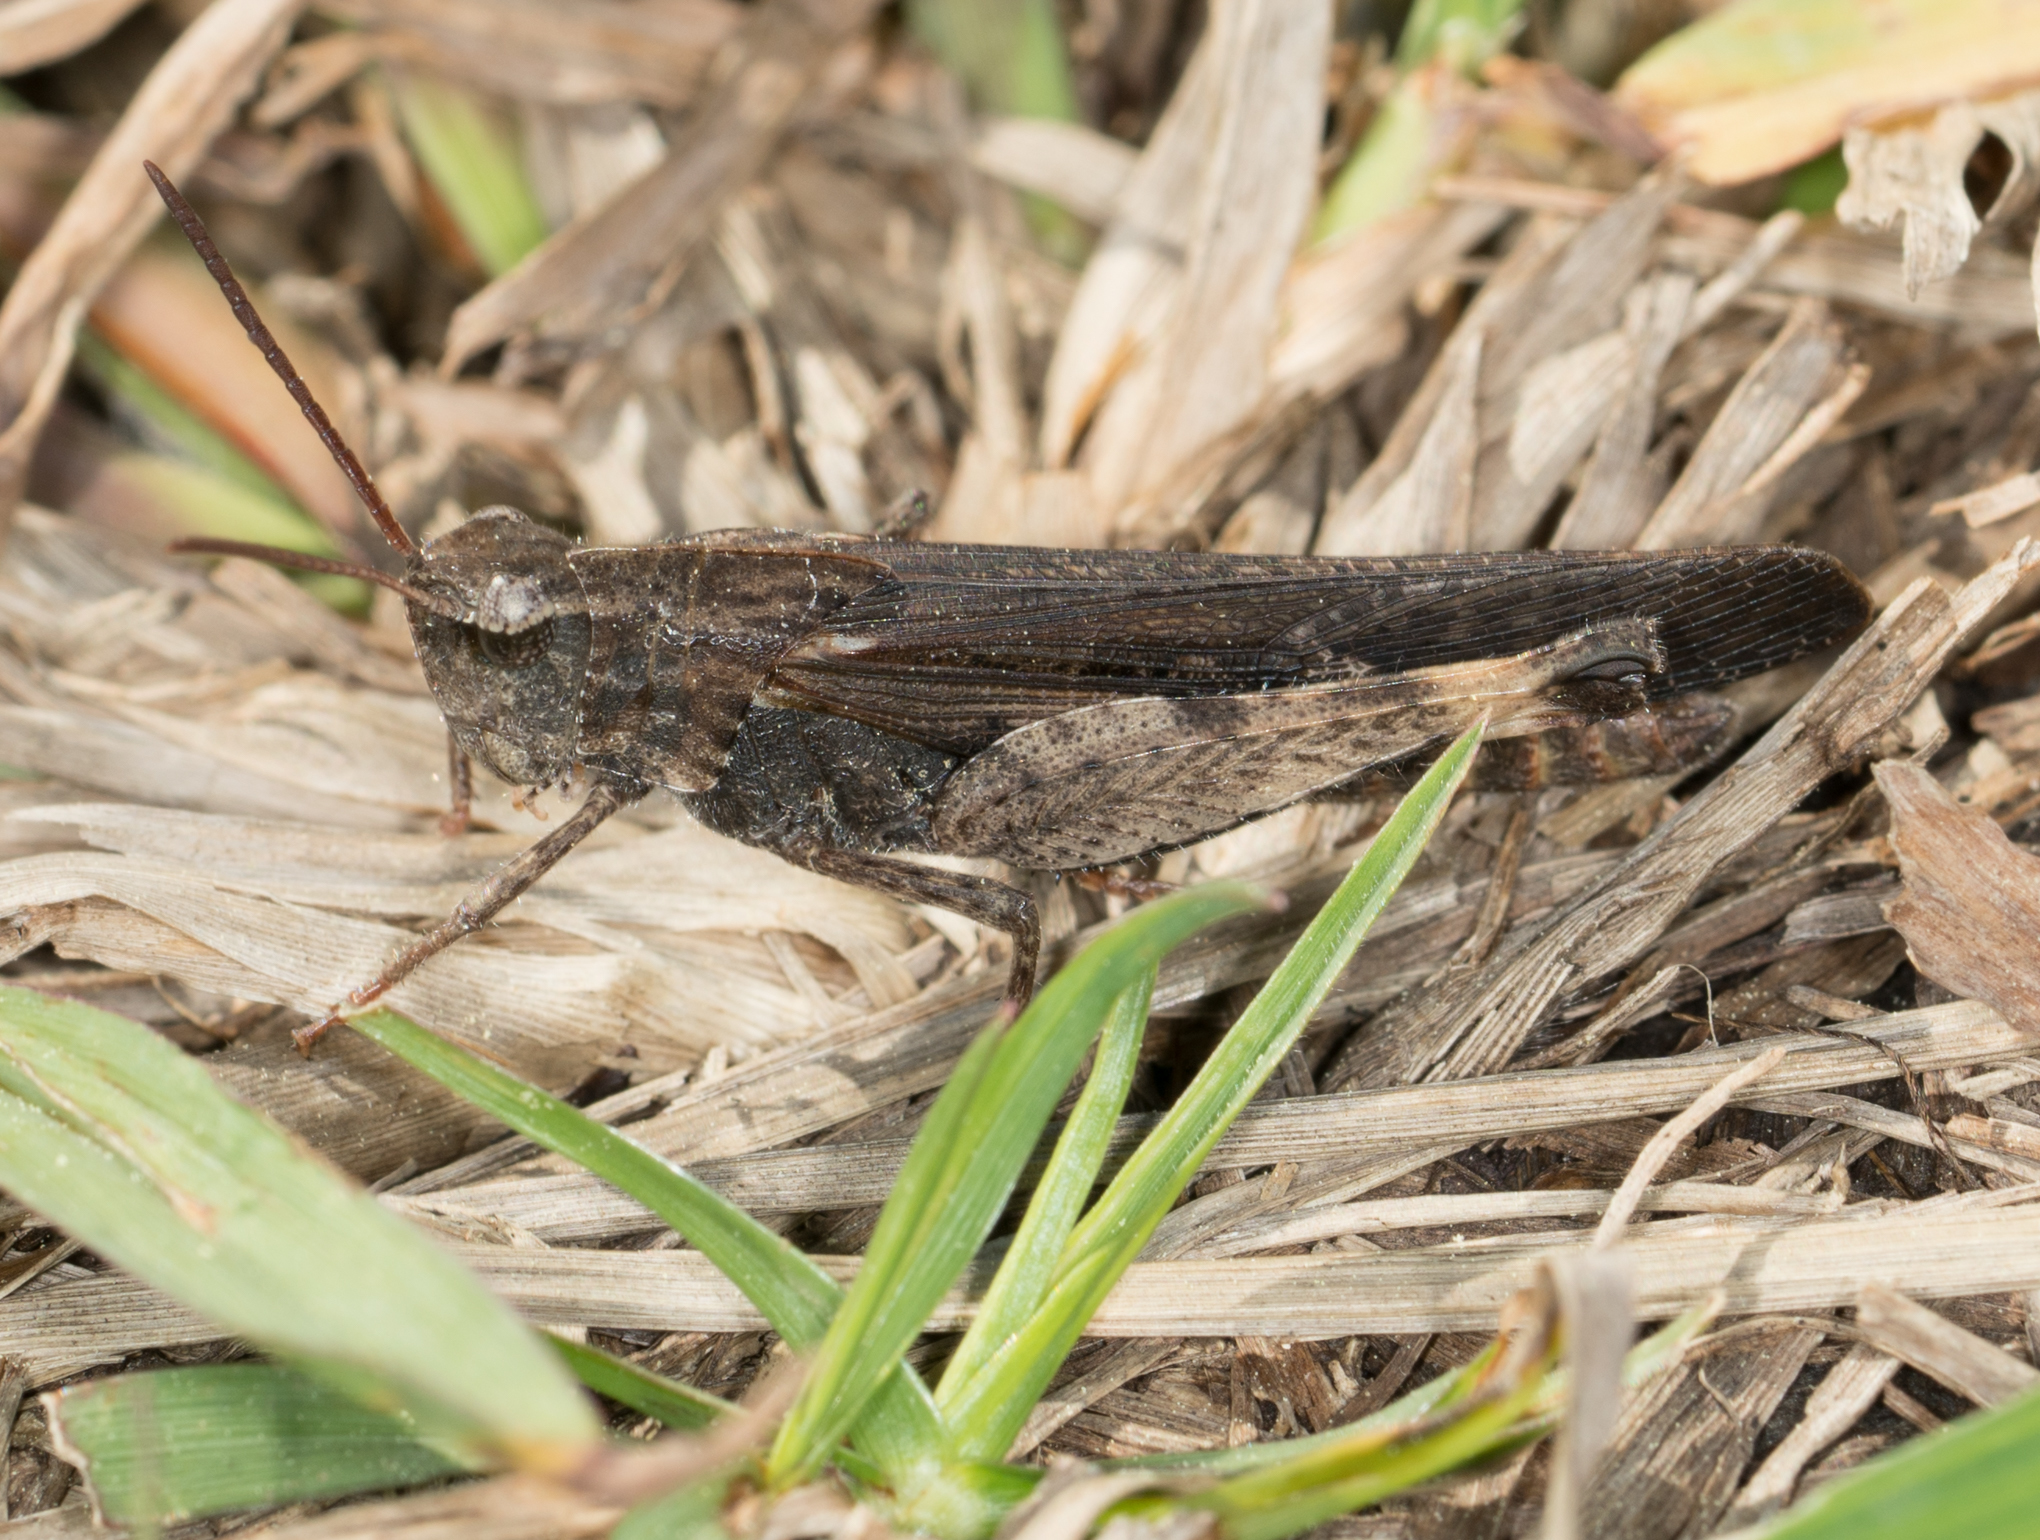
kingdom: Animalia
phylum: Arthropoda
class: Insecta
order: Orthoptera
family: Acrididae
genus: Chortophaga
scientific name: Chortophaga viridifasciata
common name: Green-striped grasshopper
